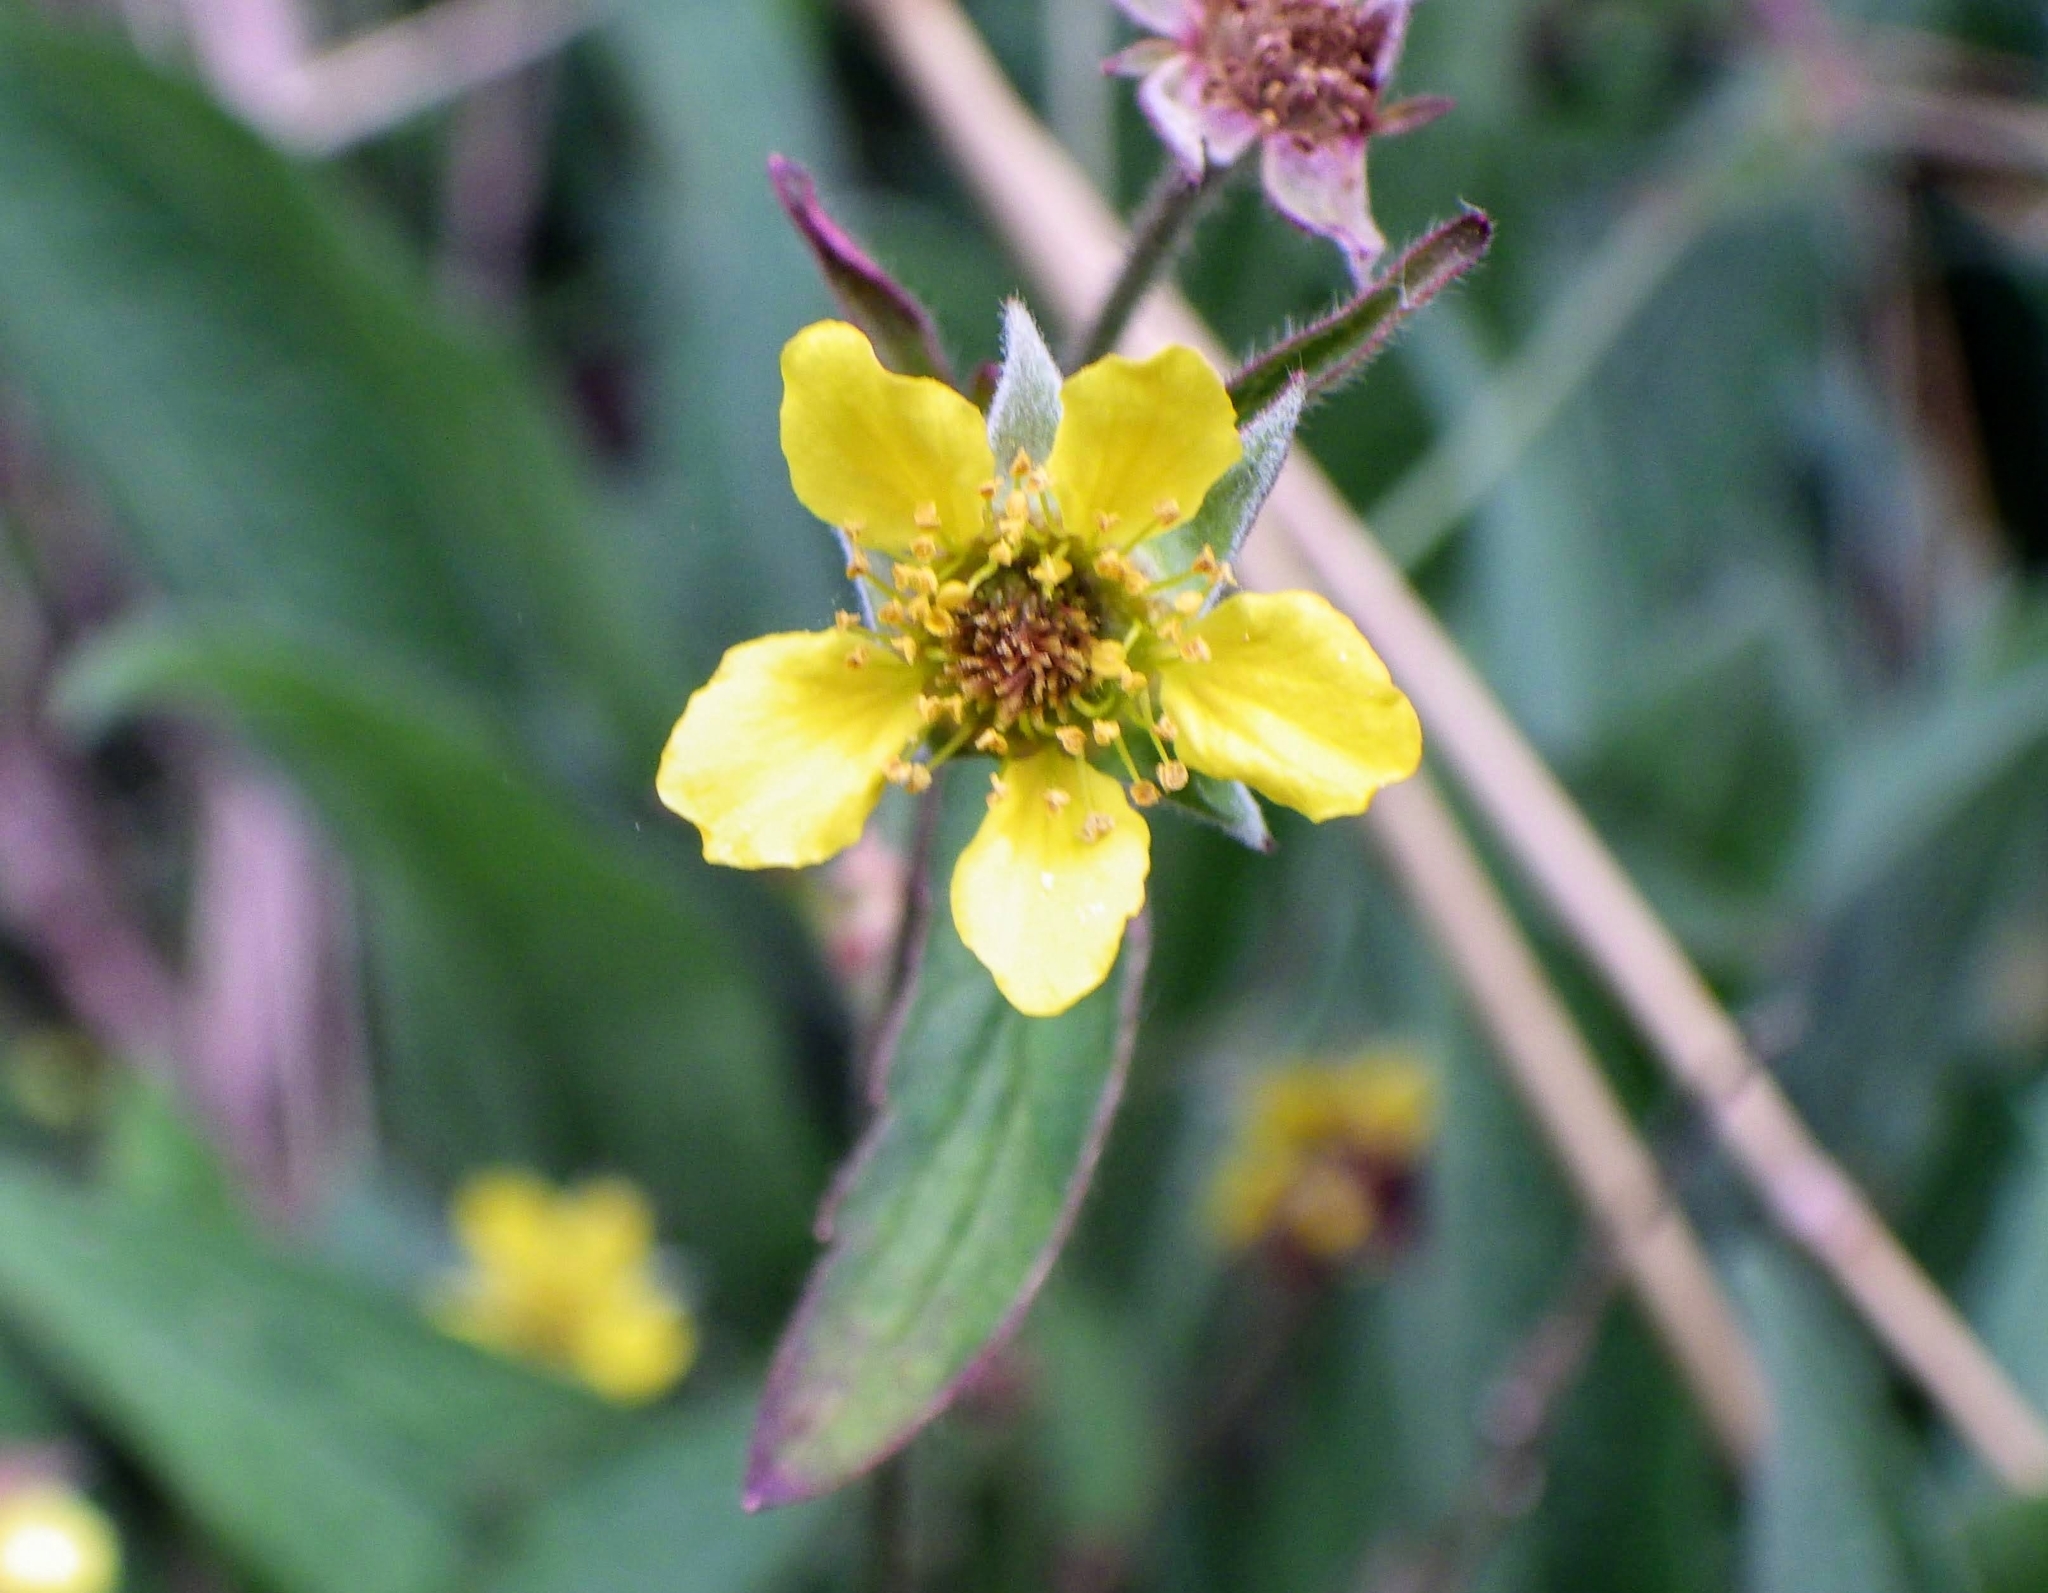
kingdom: Plantae
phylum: Tracheophyta
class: Magnoliopsida
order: Rosales
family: Rosaceae
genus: Geum
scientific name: Geum urbanum
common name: Wood avens
